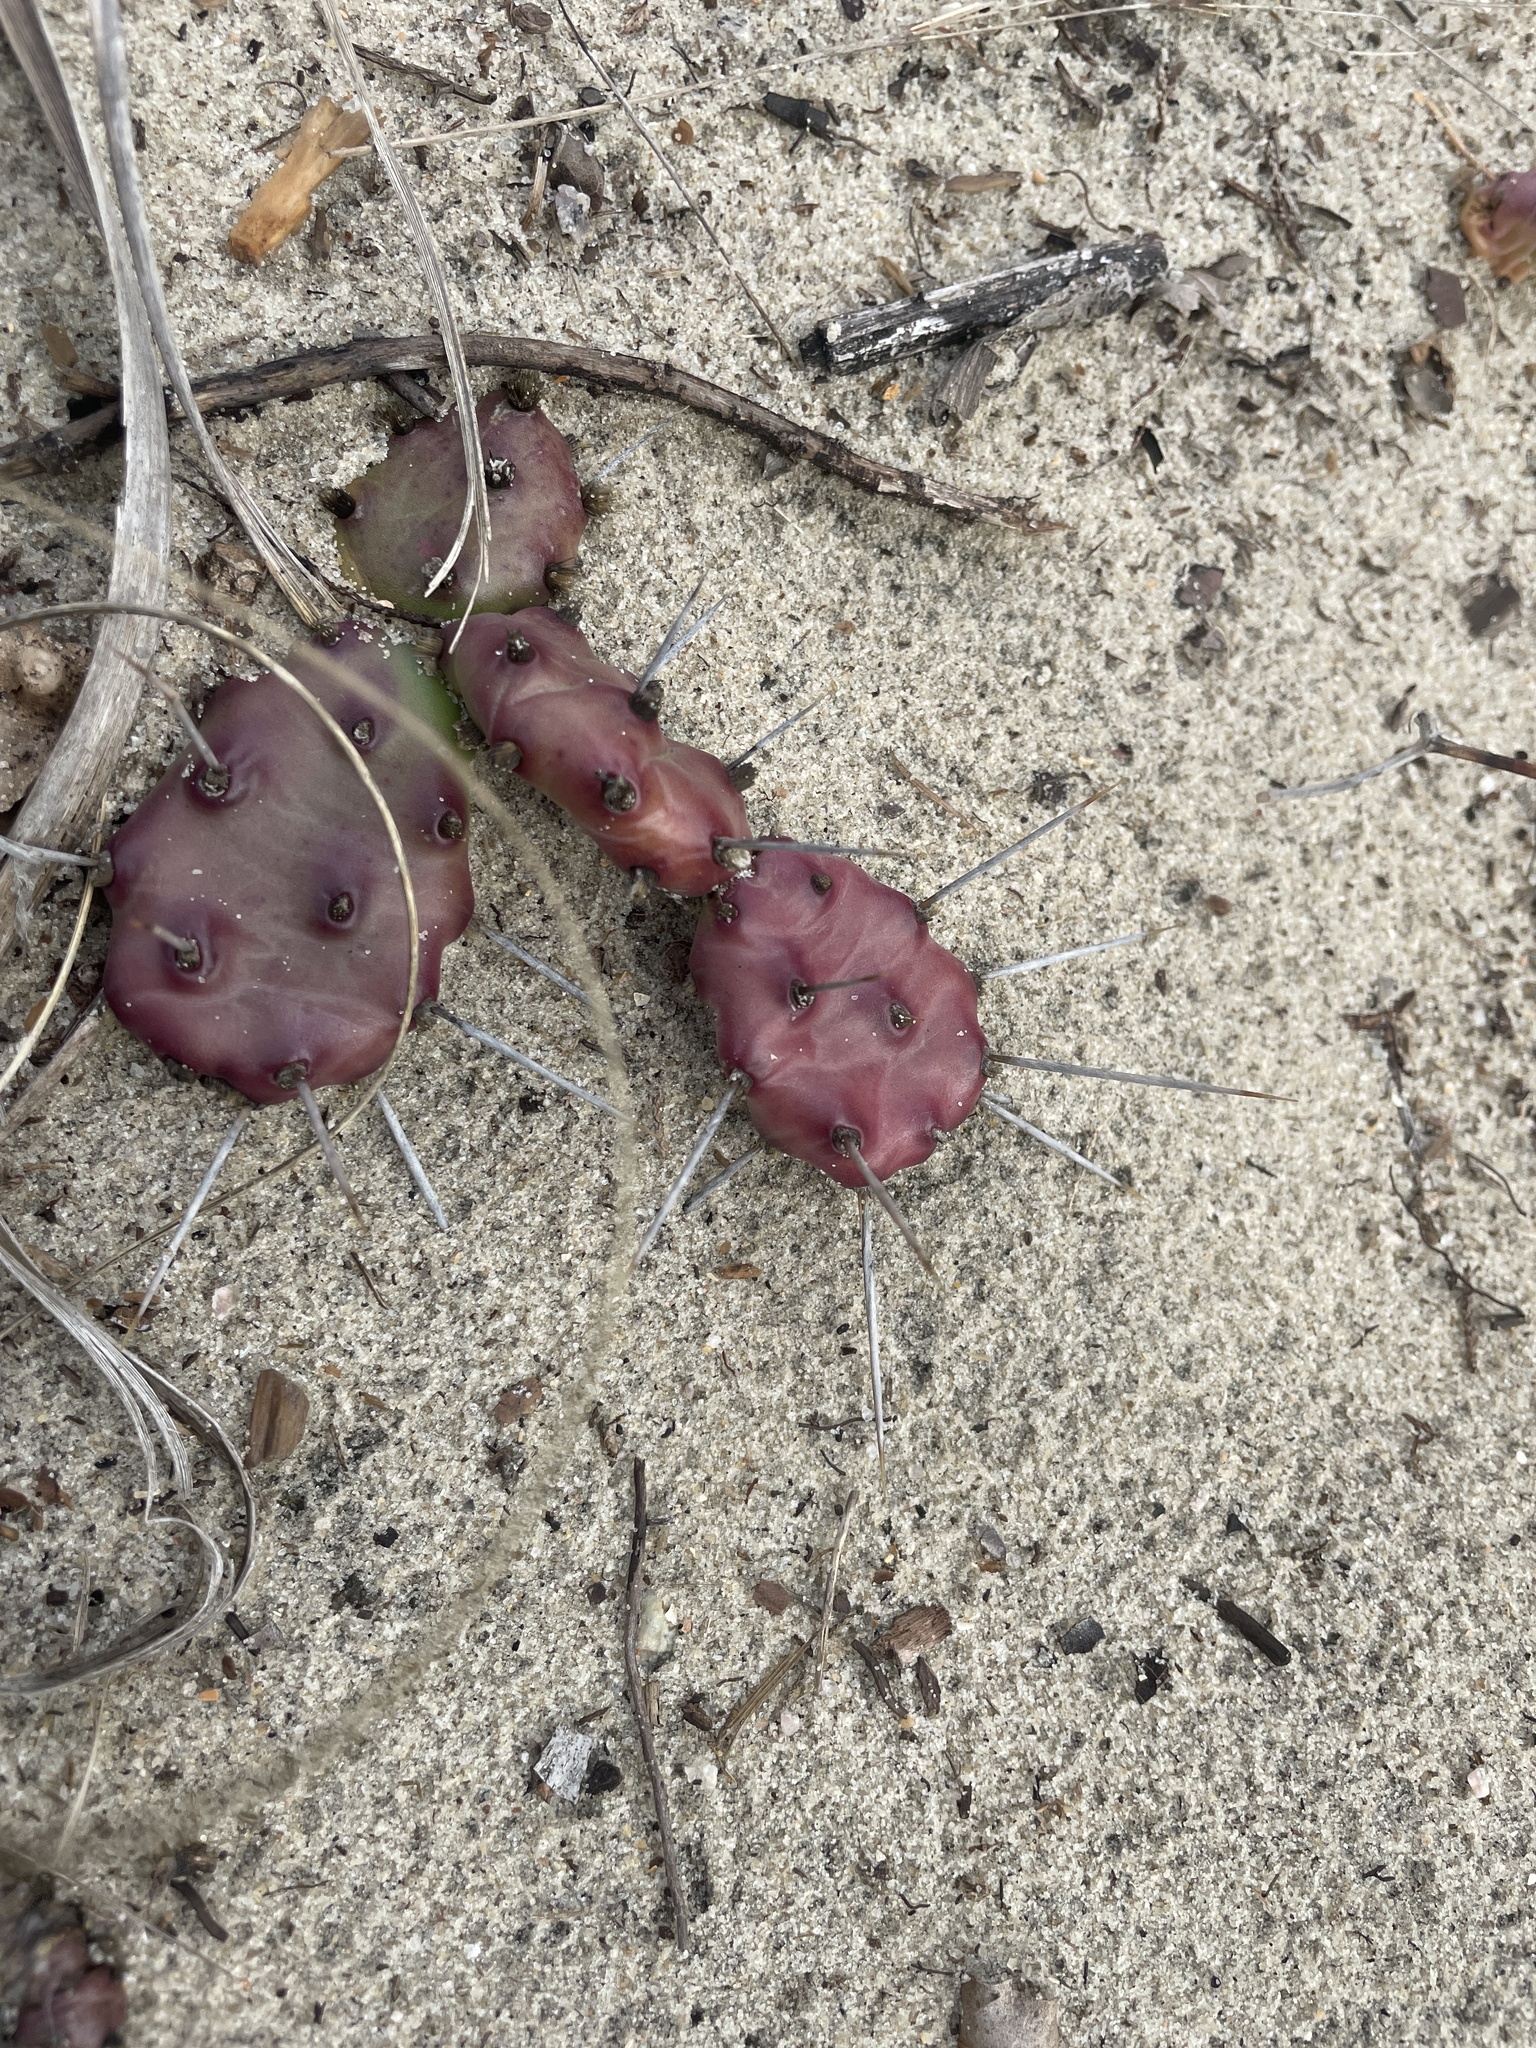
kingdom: Plantae
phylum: Tracheophyta
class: Magnoliopsida
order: Caryophyllales
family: Cactaceae
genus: Opuntia
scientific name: Opuntia drummondii
